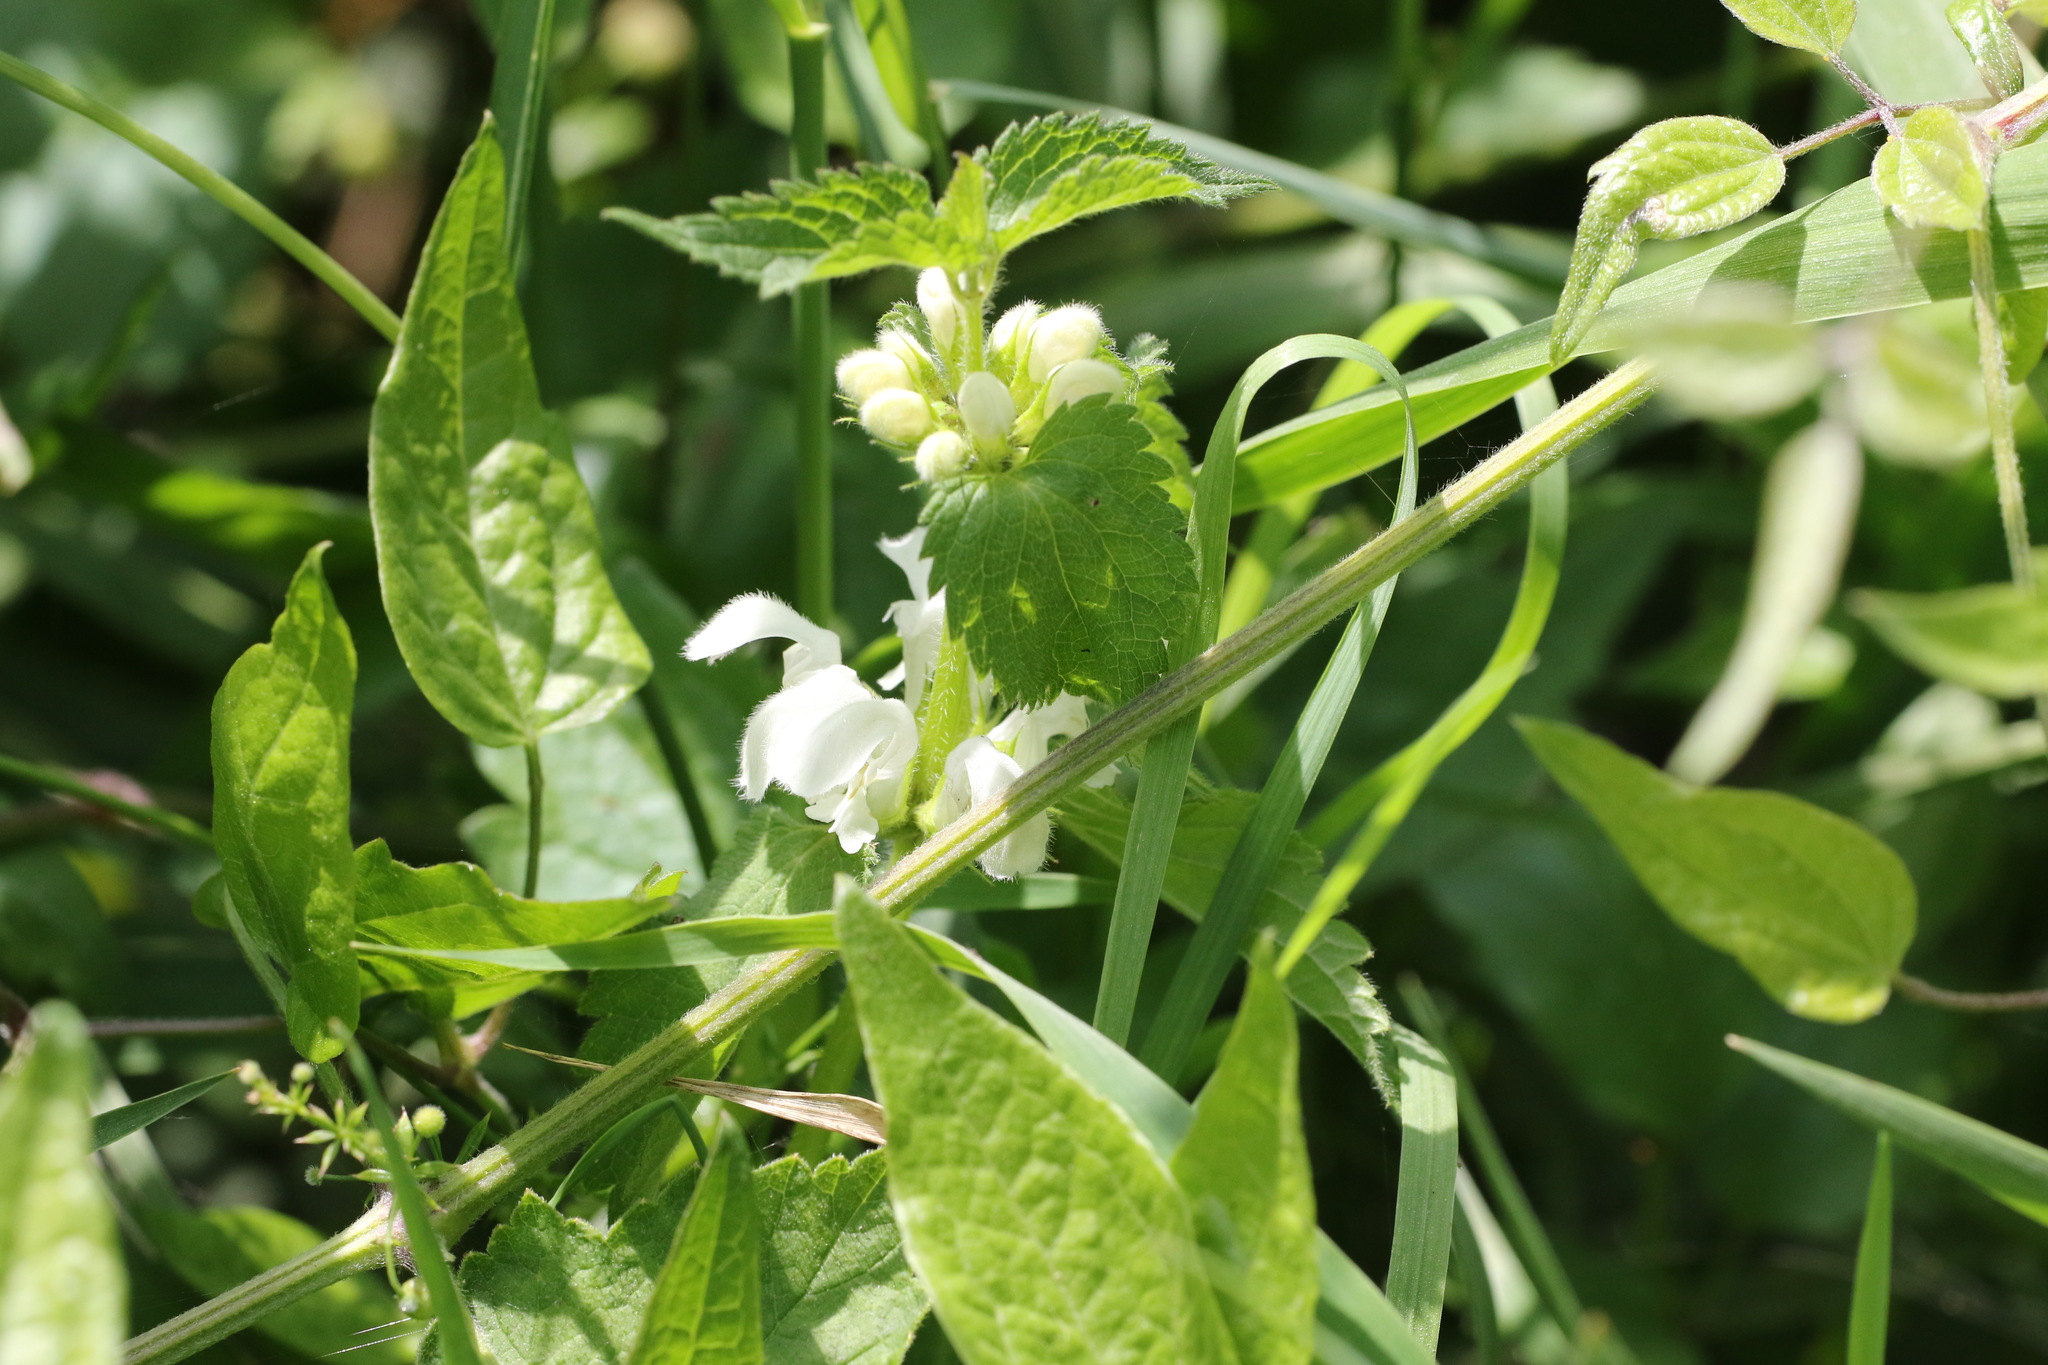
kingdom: Plantae
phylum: Tracheophyta
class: Magnoliopsida
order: Lamiales
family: Lamiaceae
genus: Lamium
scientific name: Lamium album
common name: White dead-nettle
